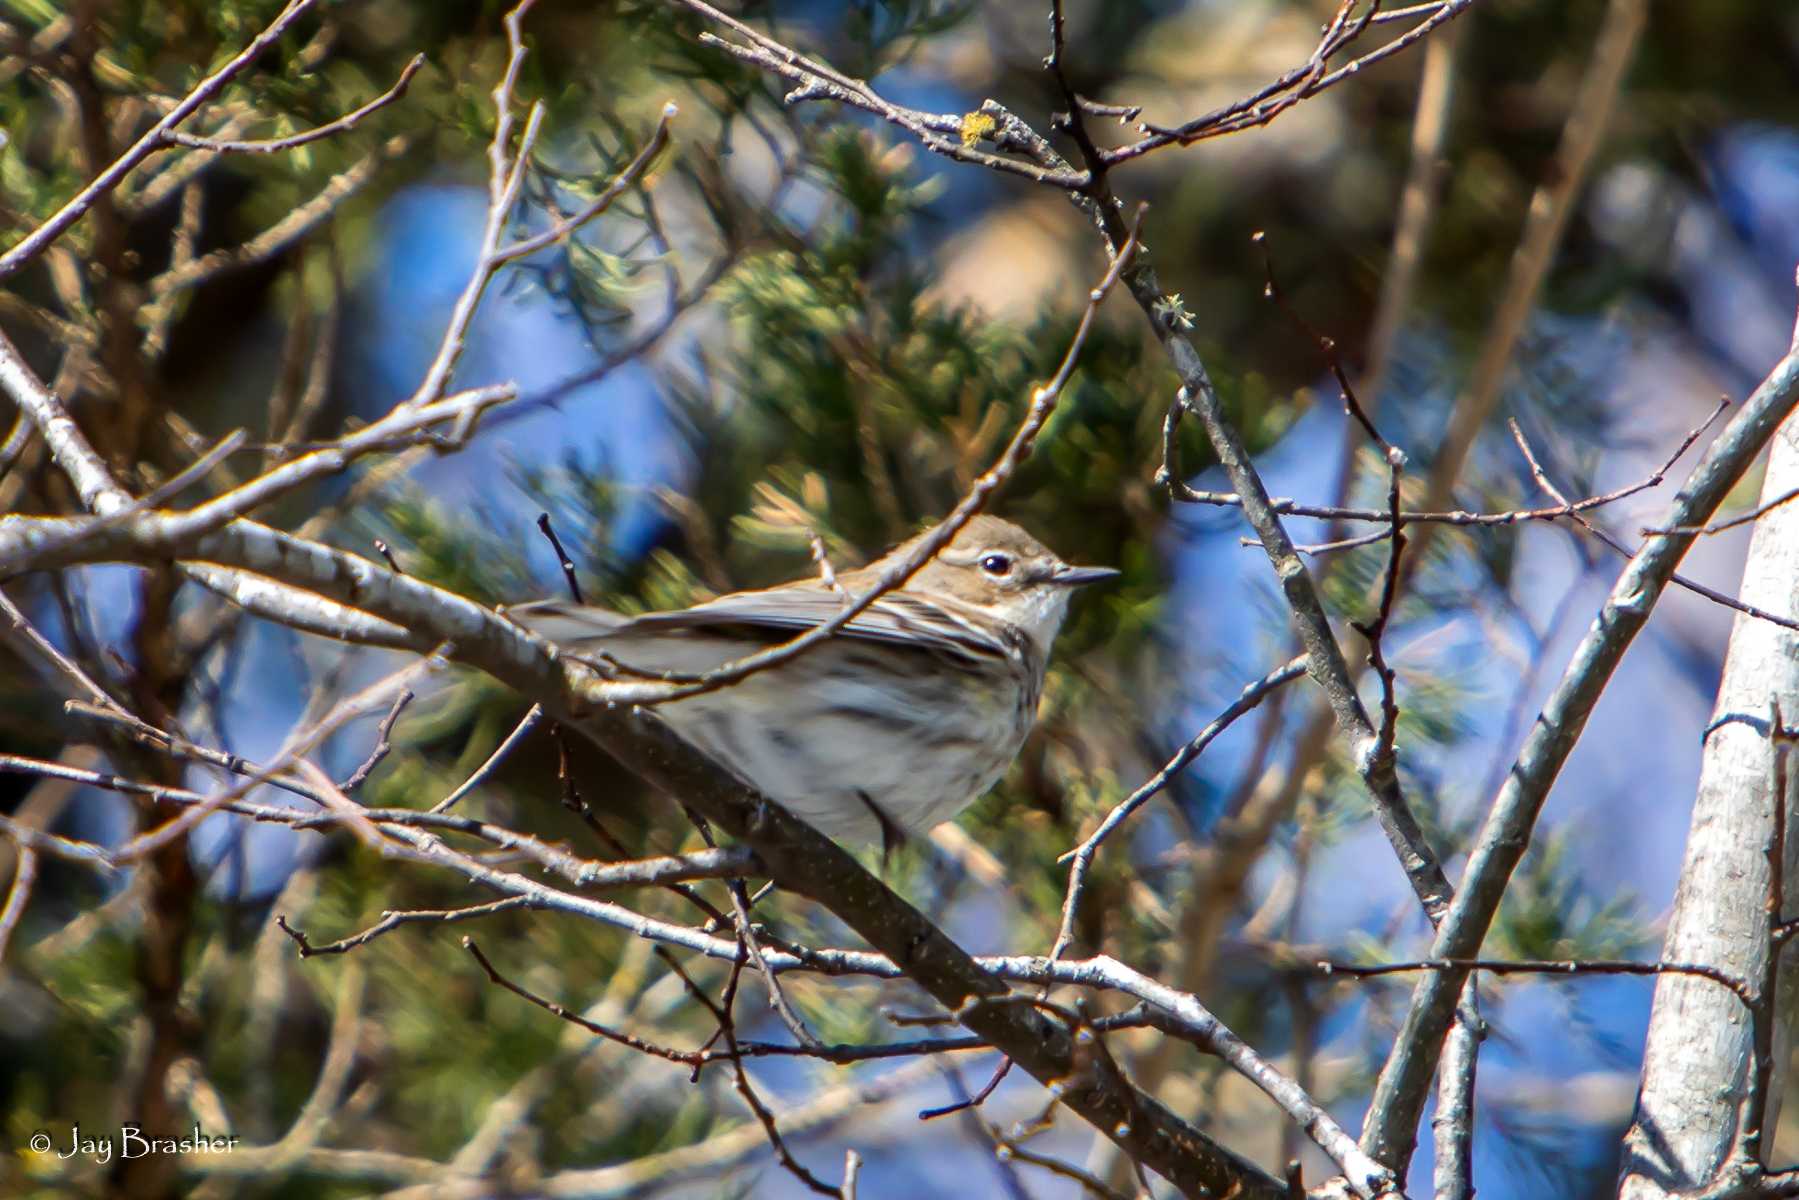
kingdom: Animalia
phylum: Chordata
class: Aves
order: Passeriformes
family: Parulidae
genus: Setophaga
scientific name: Setophaga coronata
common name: Myrtle warbler
